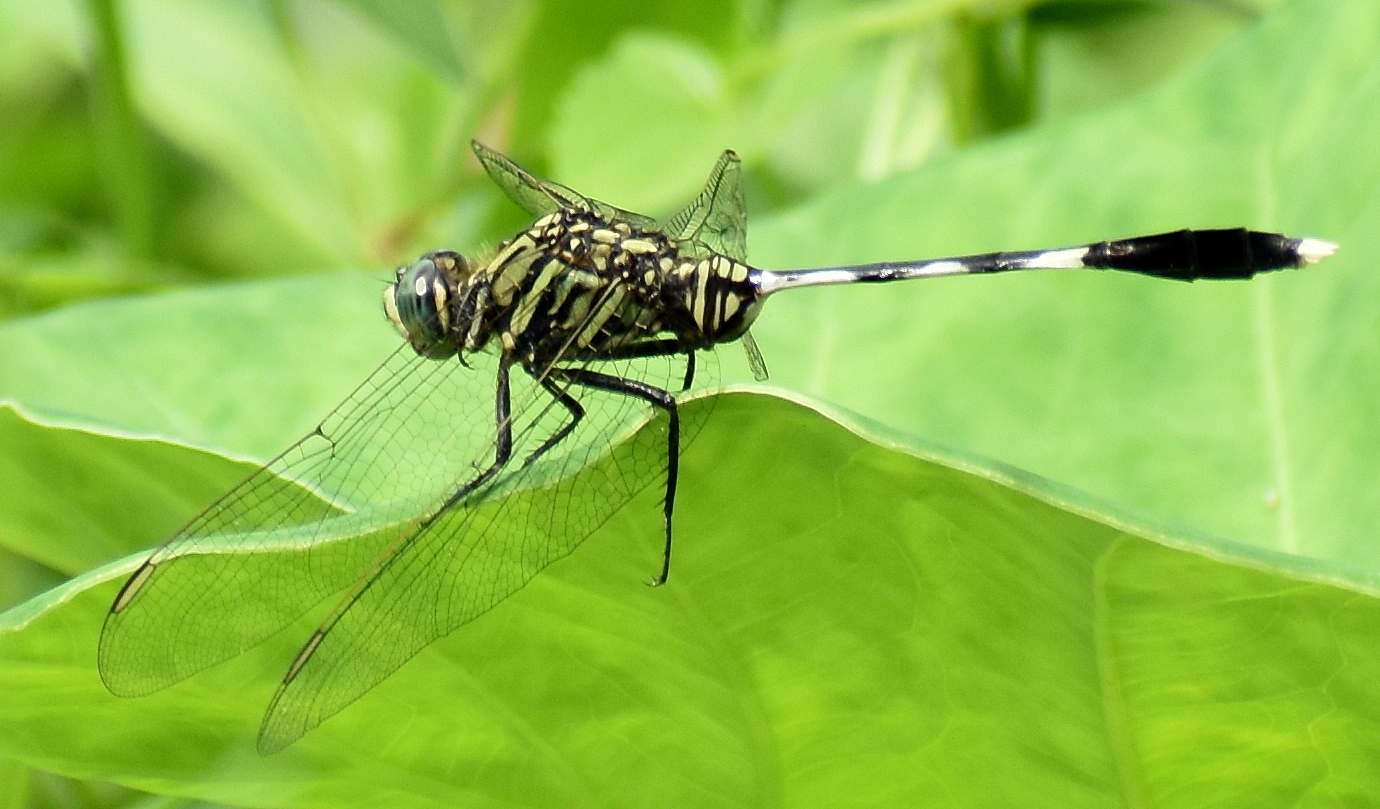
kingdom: Animalia
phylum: Arthropoda
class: Insecta
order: Odonata
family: Libellulidae
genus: Orthetrum
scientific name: Orthetrum sabina
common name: Slender skimmer
